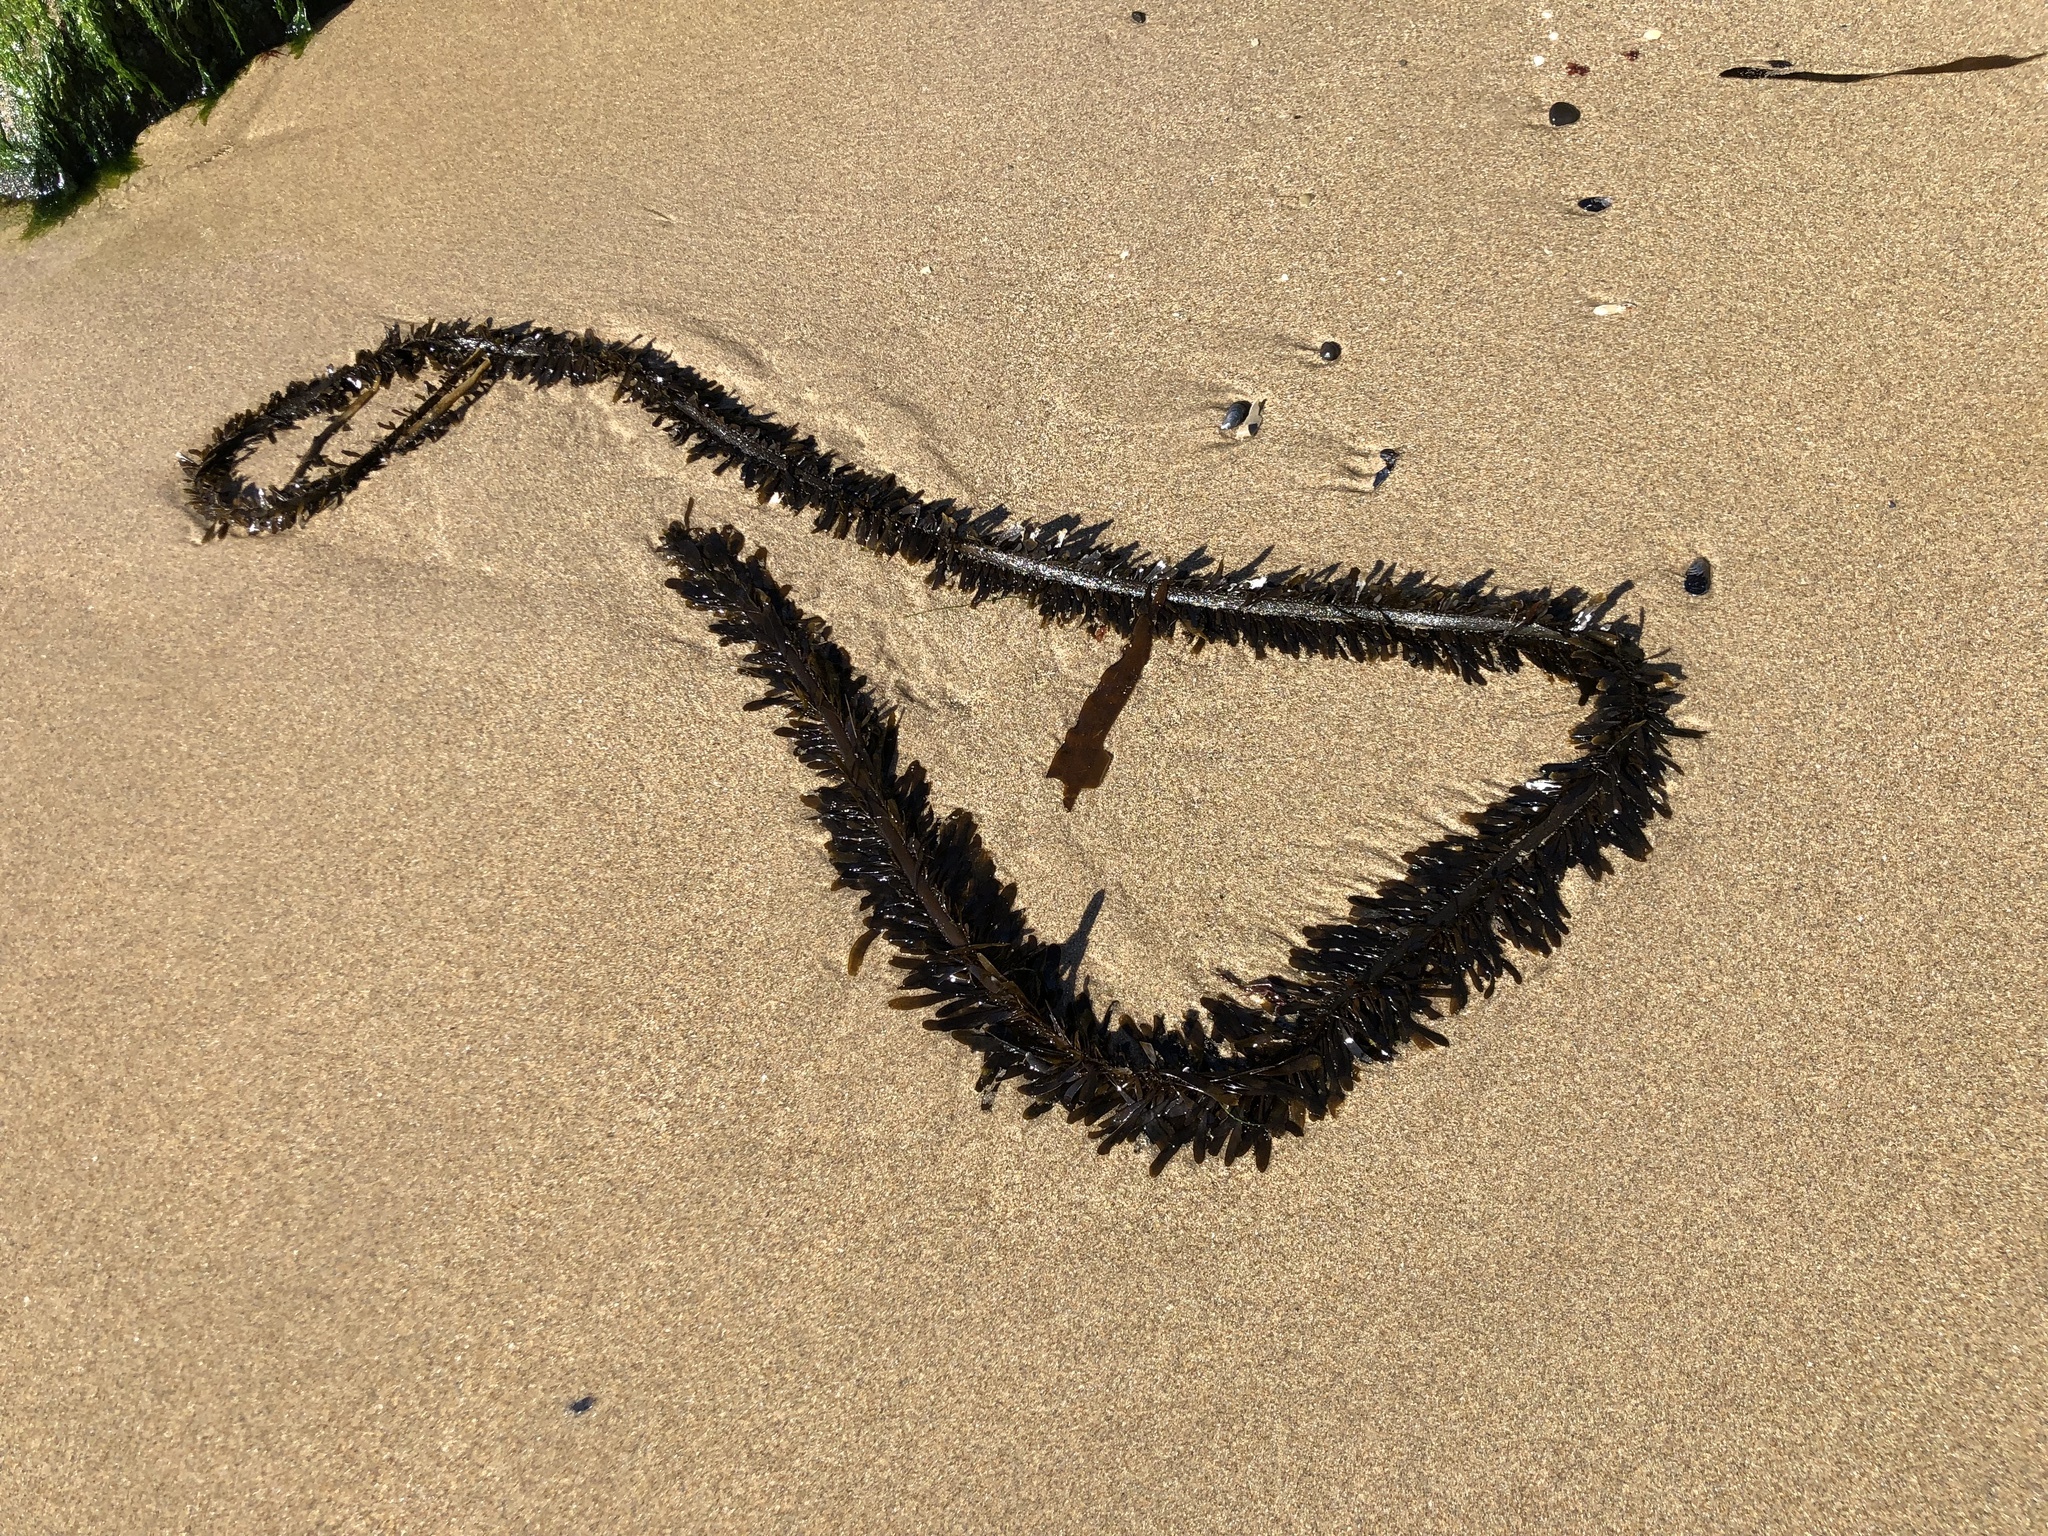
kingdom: Chromista
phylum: Ochrophyta
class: Phaeophyceae
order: Laminariales
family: Lessoniaceae
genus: Egregia
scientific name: Egregia menziesii
